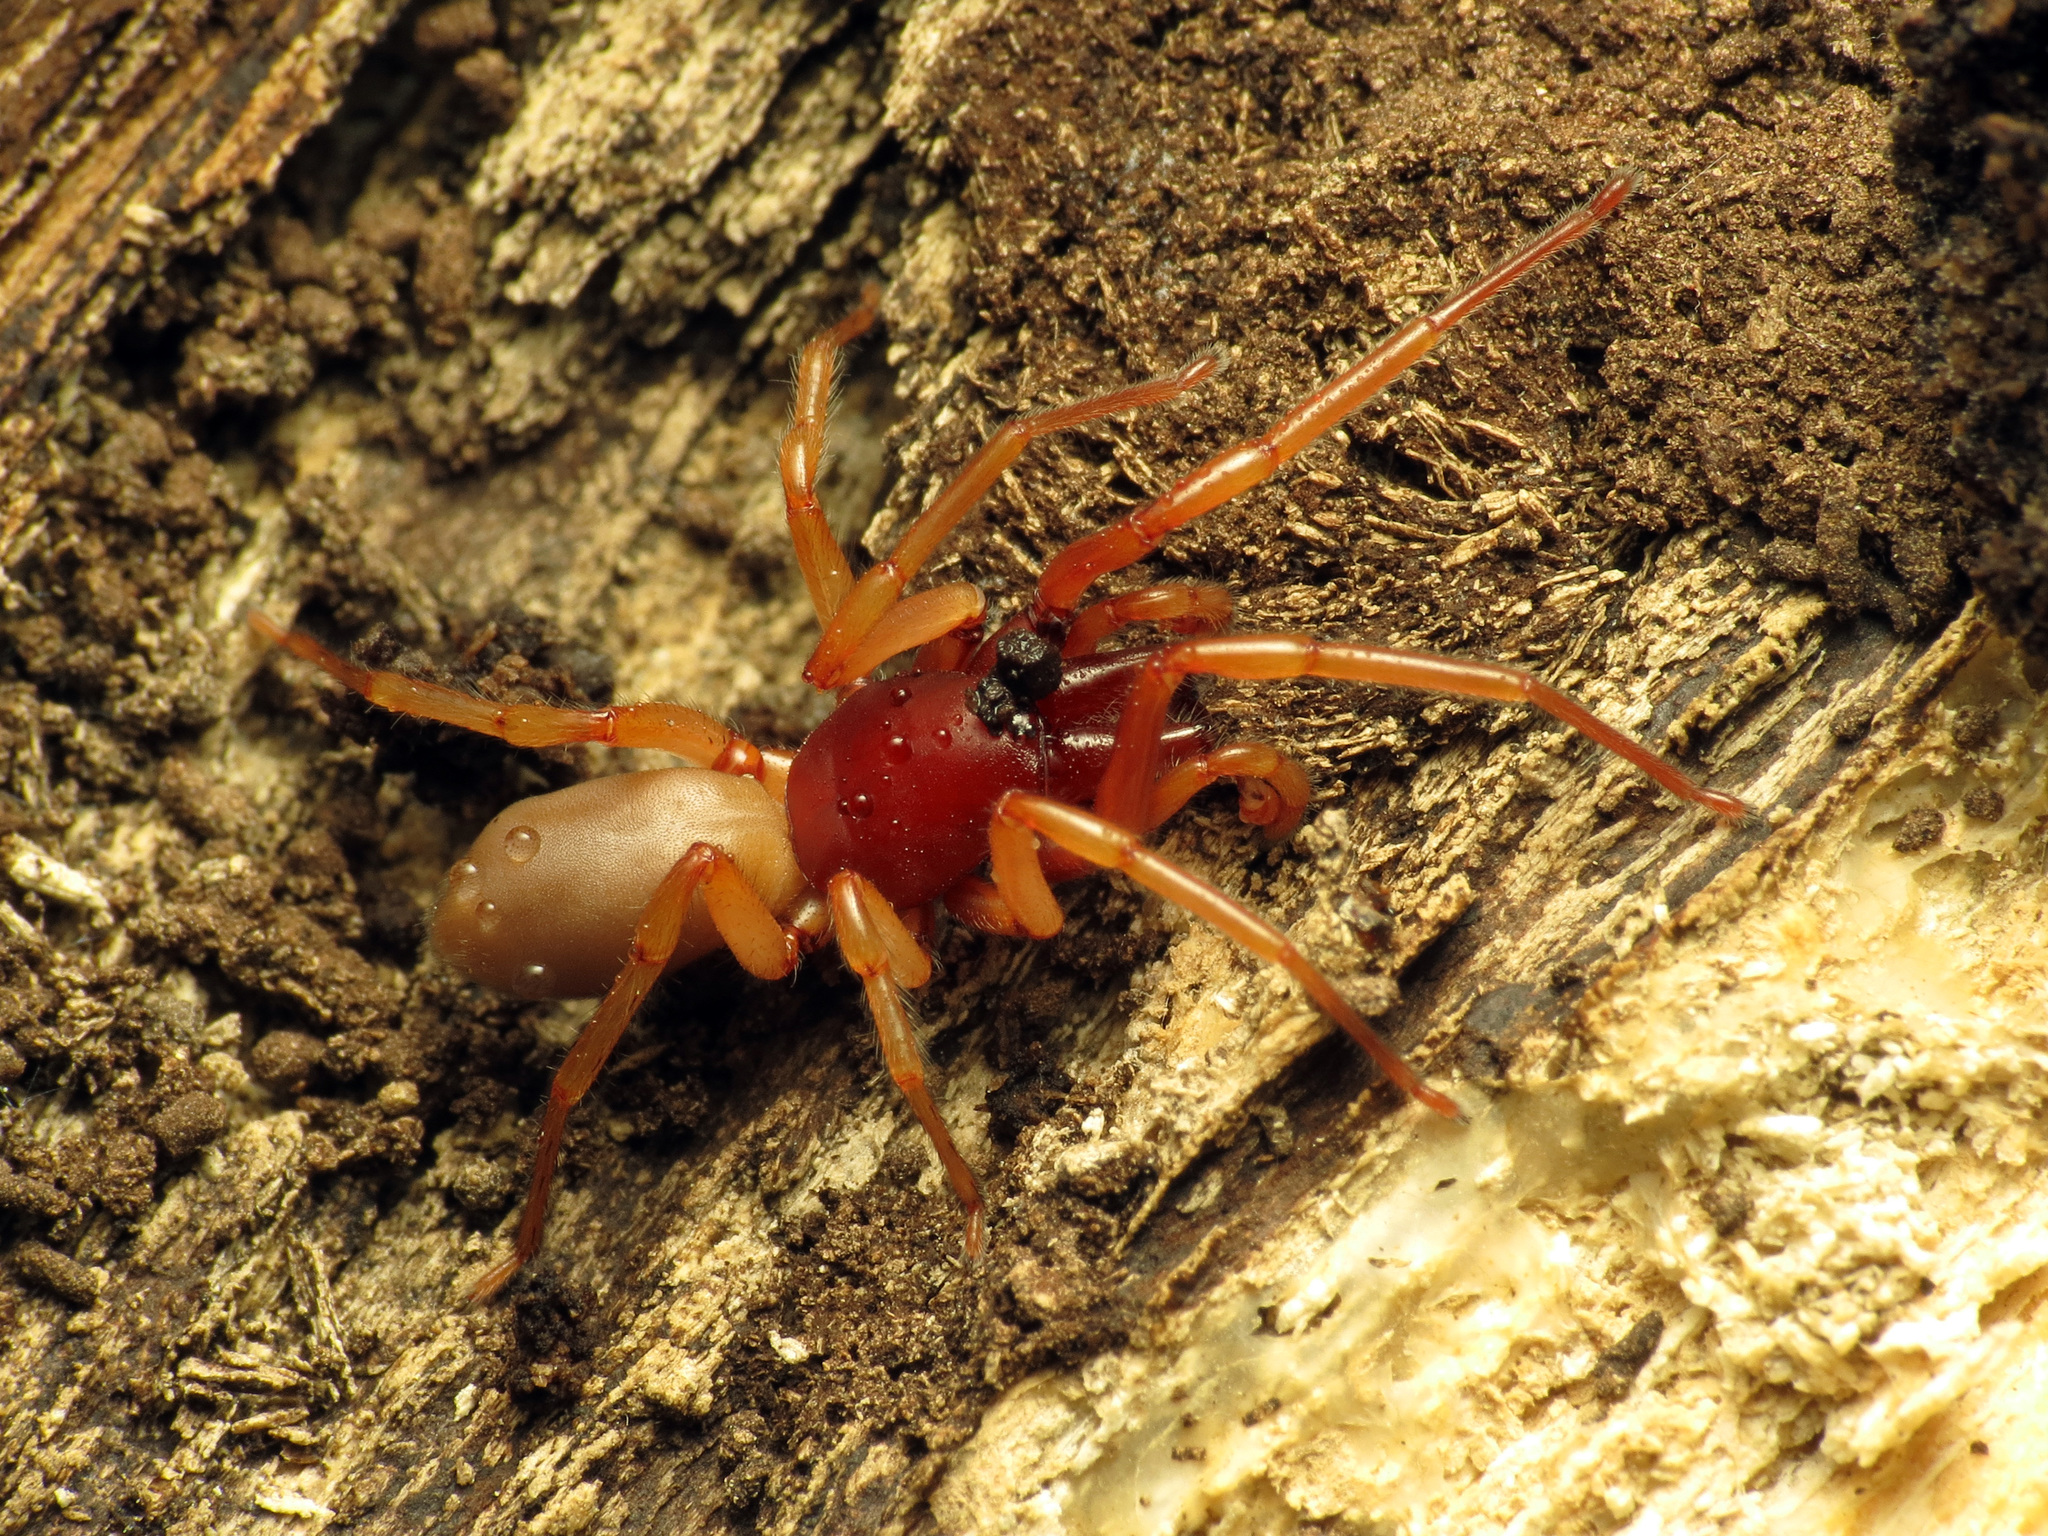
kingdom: Animalia
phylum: Arthropoda
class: Arachnida
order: Araneae
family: Dysderidae
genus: Dysdera
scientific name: Dysdera crocata
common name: Woodlouse spider
